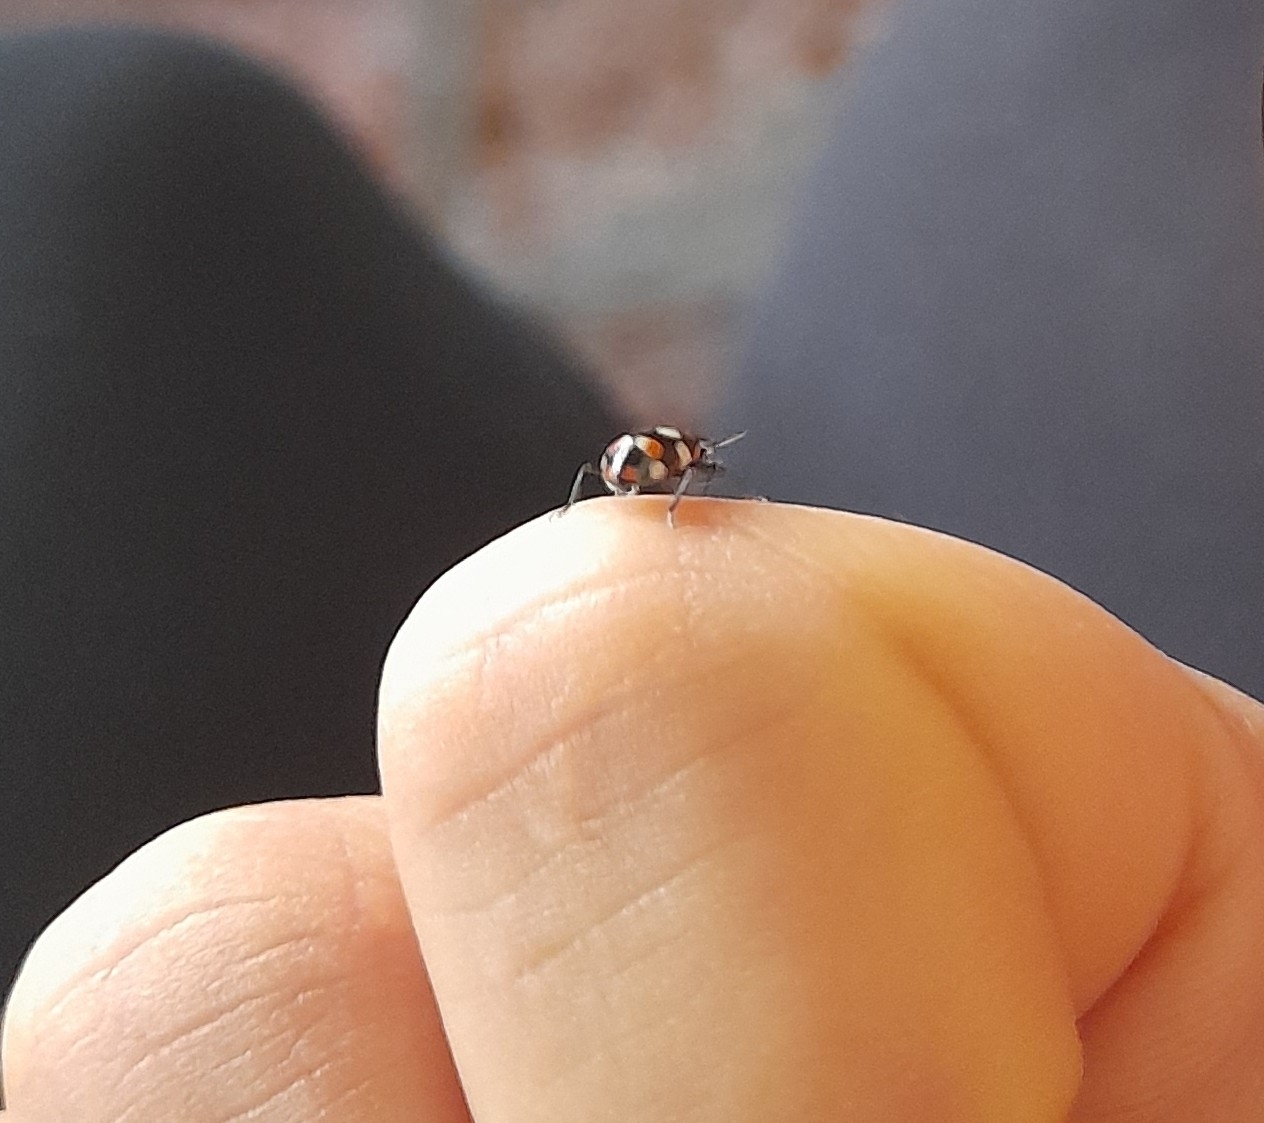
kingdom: Animalia
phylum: Arthropoda
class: Insecta
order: Coleoptera
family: Coccinellidae
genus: Eriopis
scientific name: Eriopis connexa
